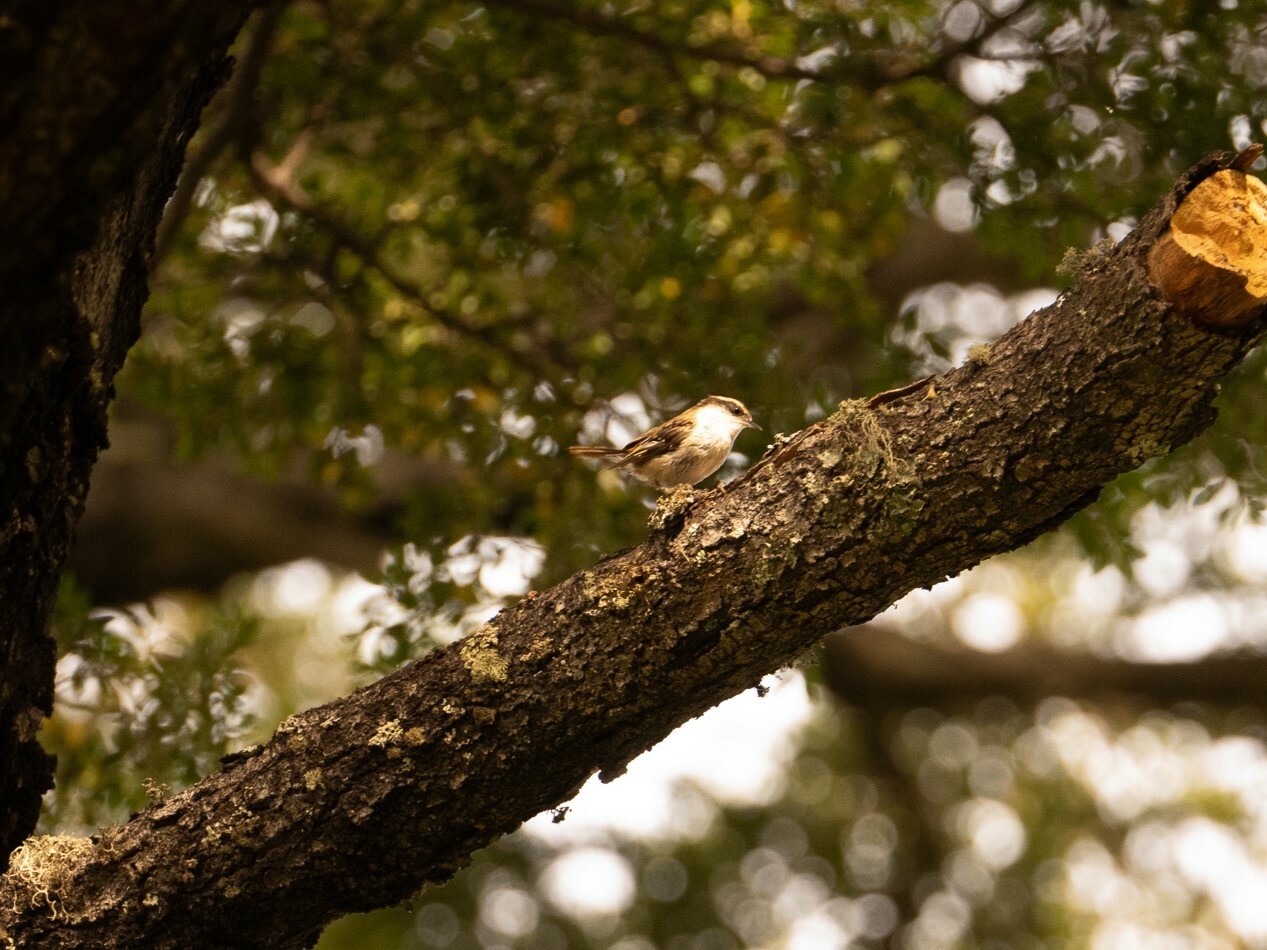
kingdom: Animalia
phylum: Chordata
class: Aves
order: Passeriformes
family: Furnariidae
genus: Aphrastura
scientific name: Aphrastura spinicauda
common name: Thorn-tailed rayadito
